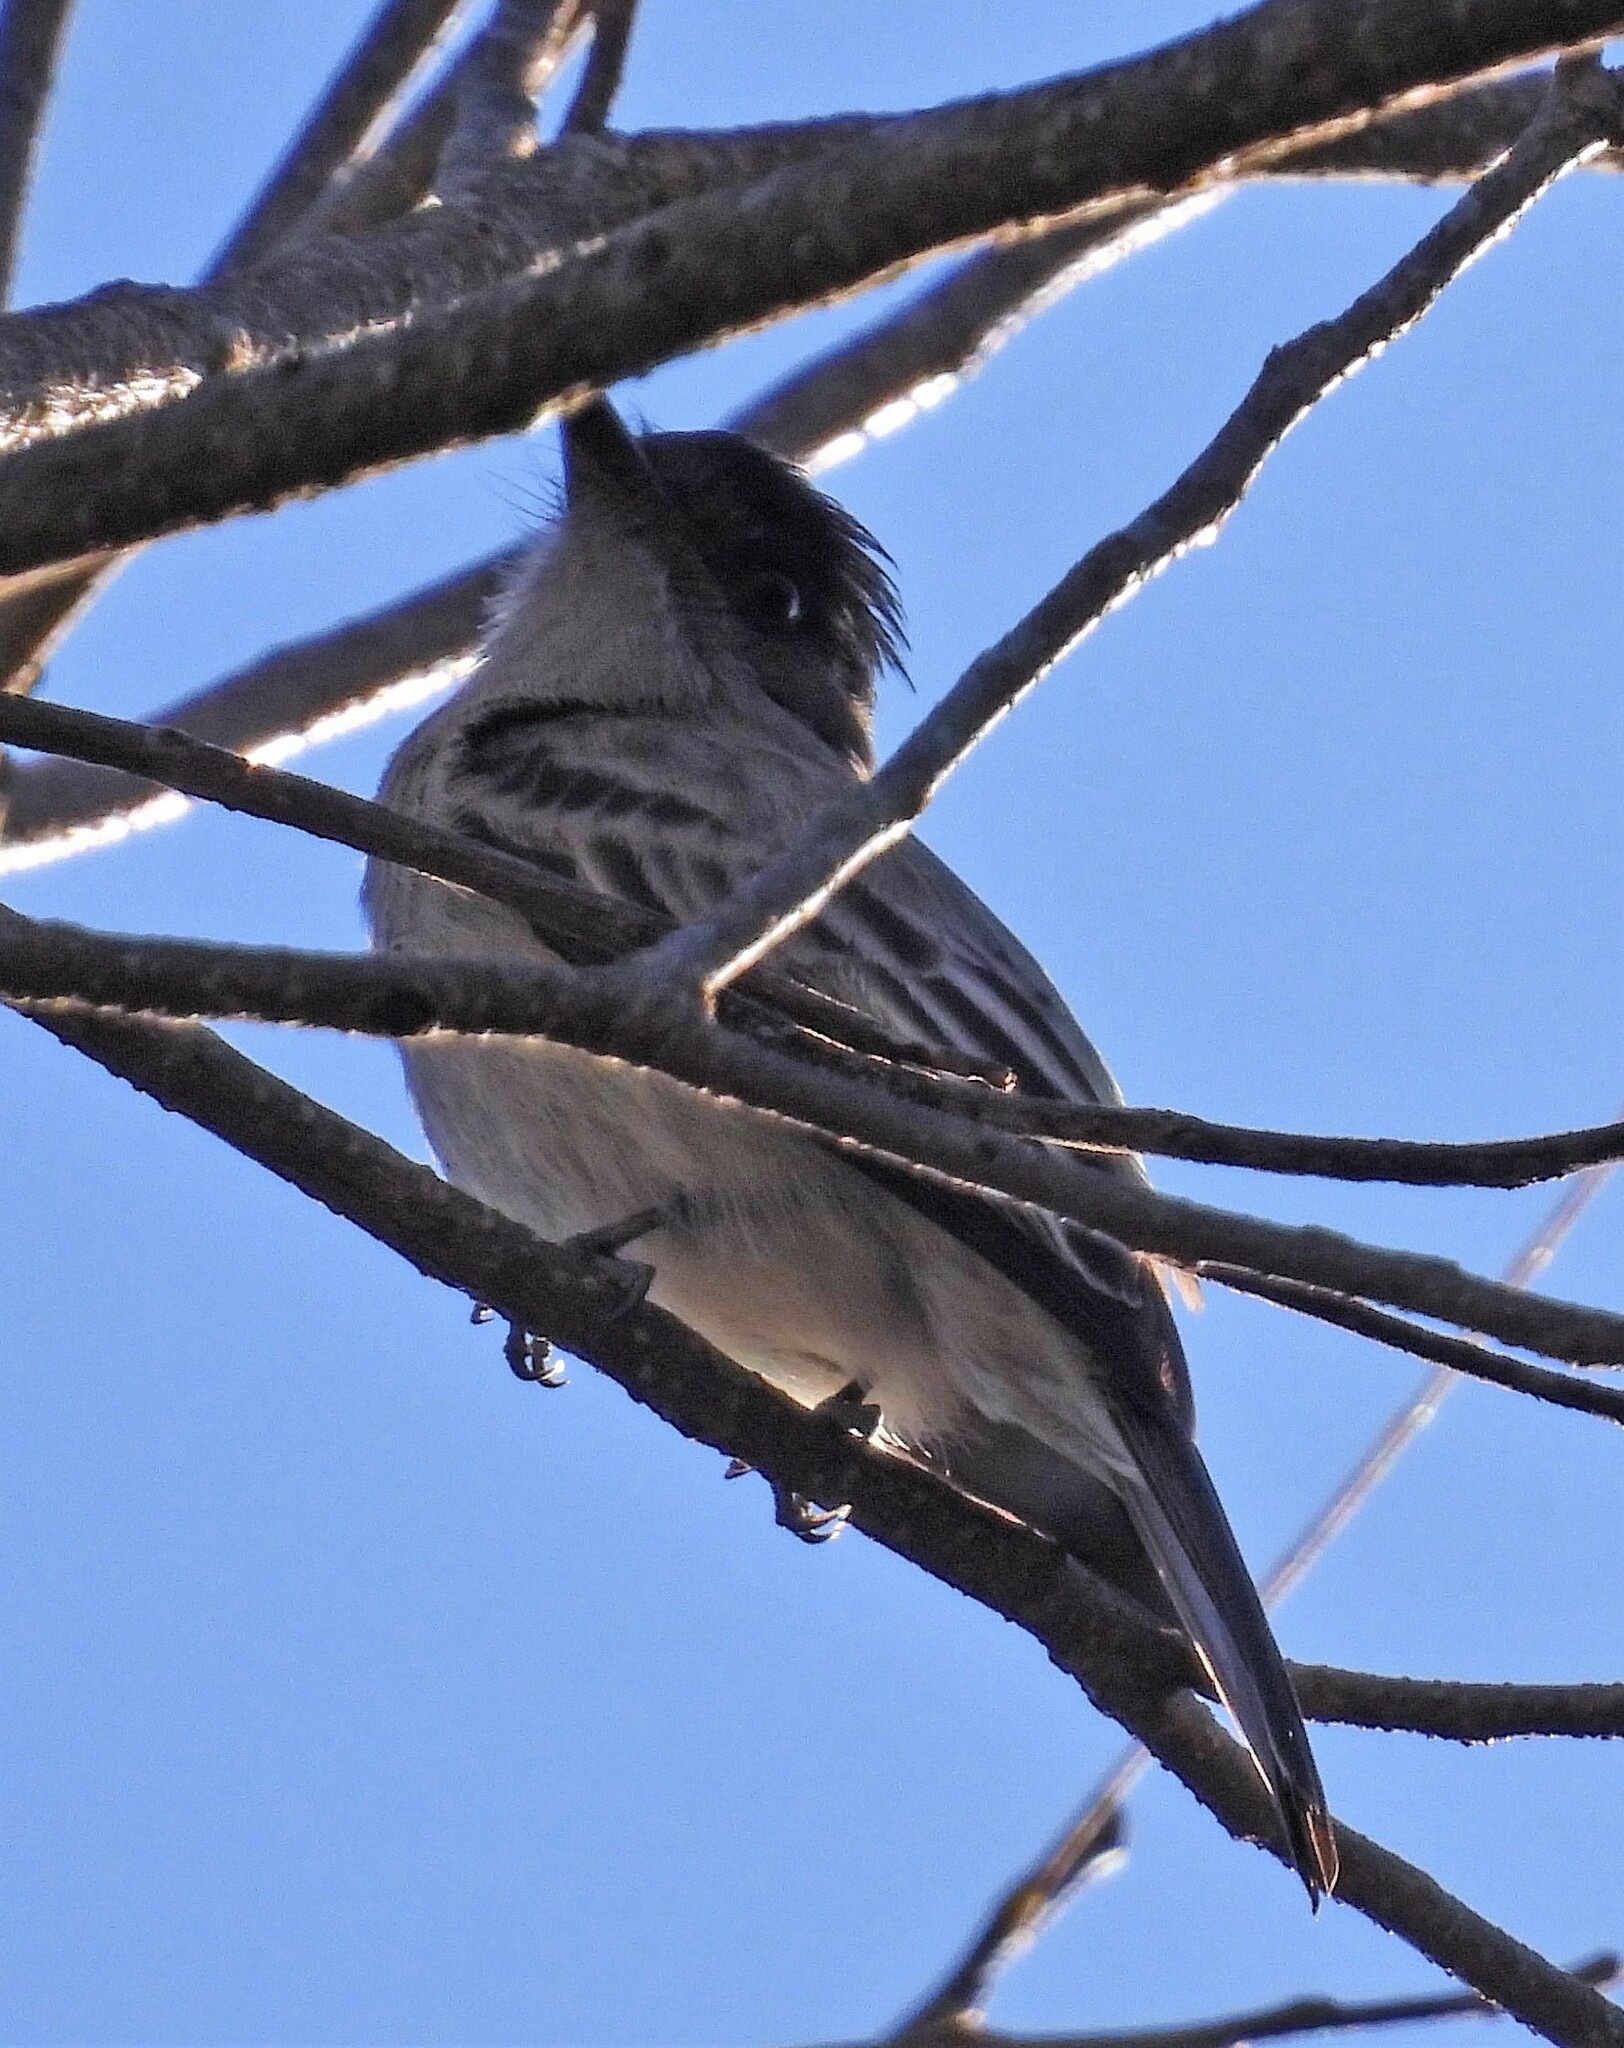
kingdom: Animalia
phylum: Chordata
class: Aves
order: Passeriformes
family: Tyrannidae
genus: Sirystes
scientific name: Sirystes sibilator
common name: Sirystes
